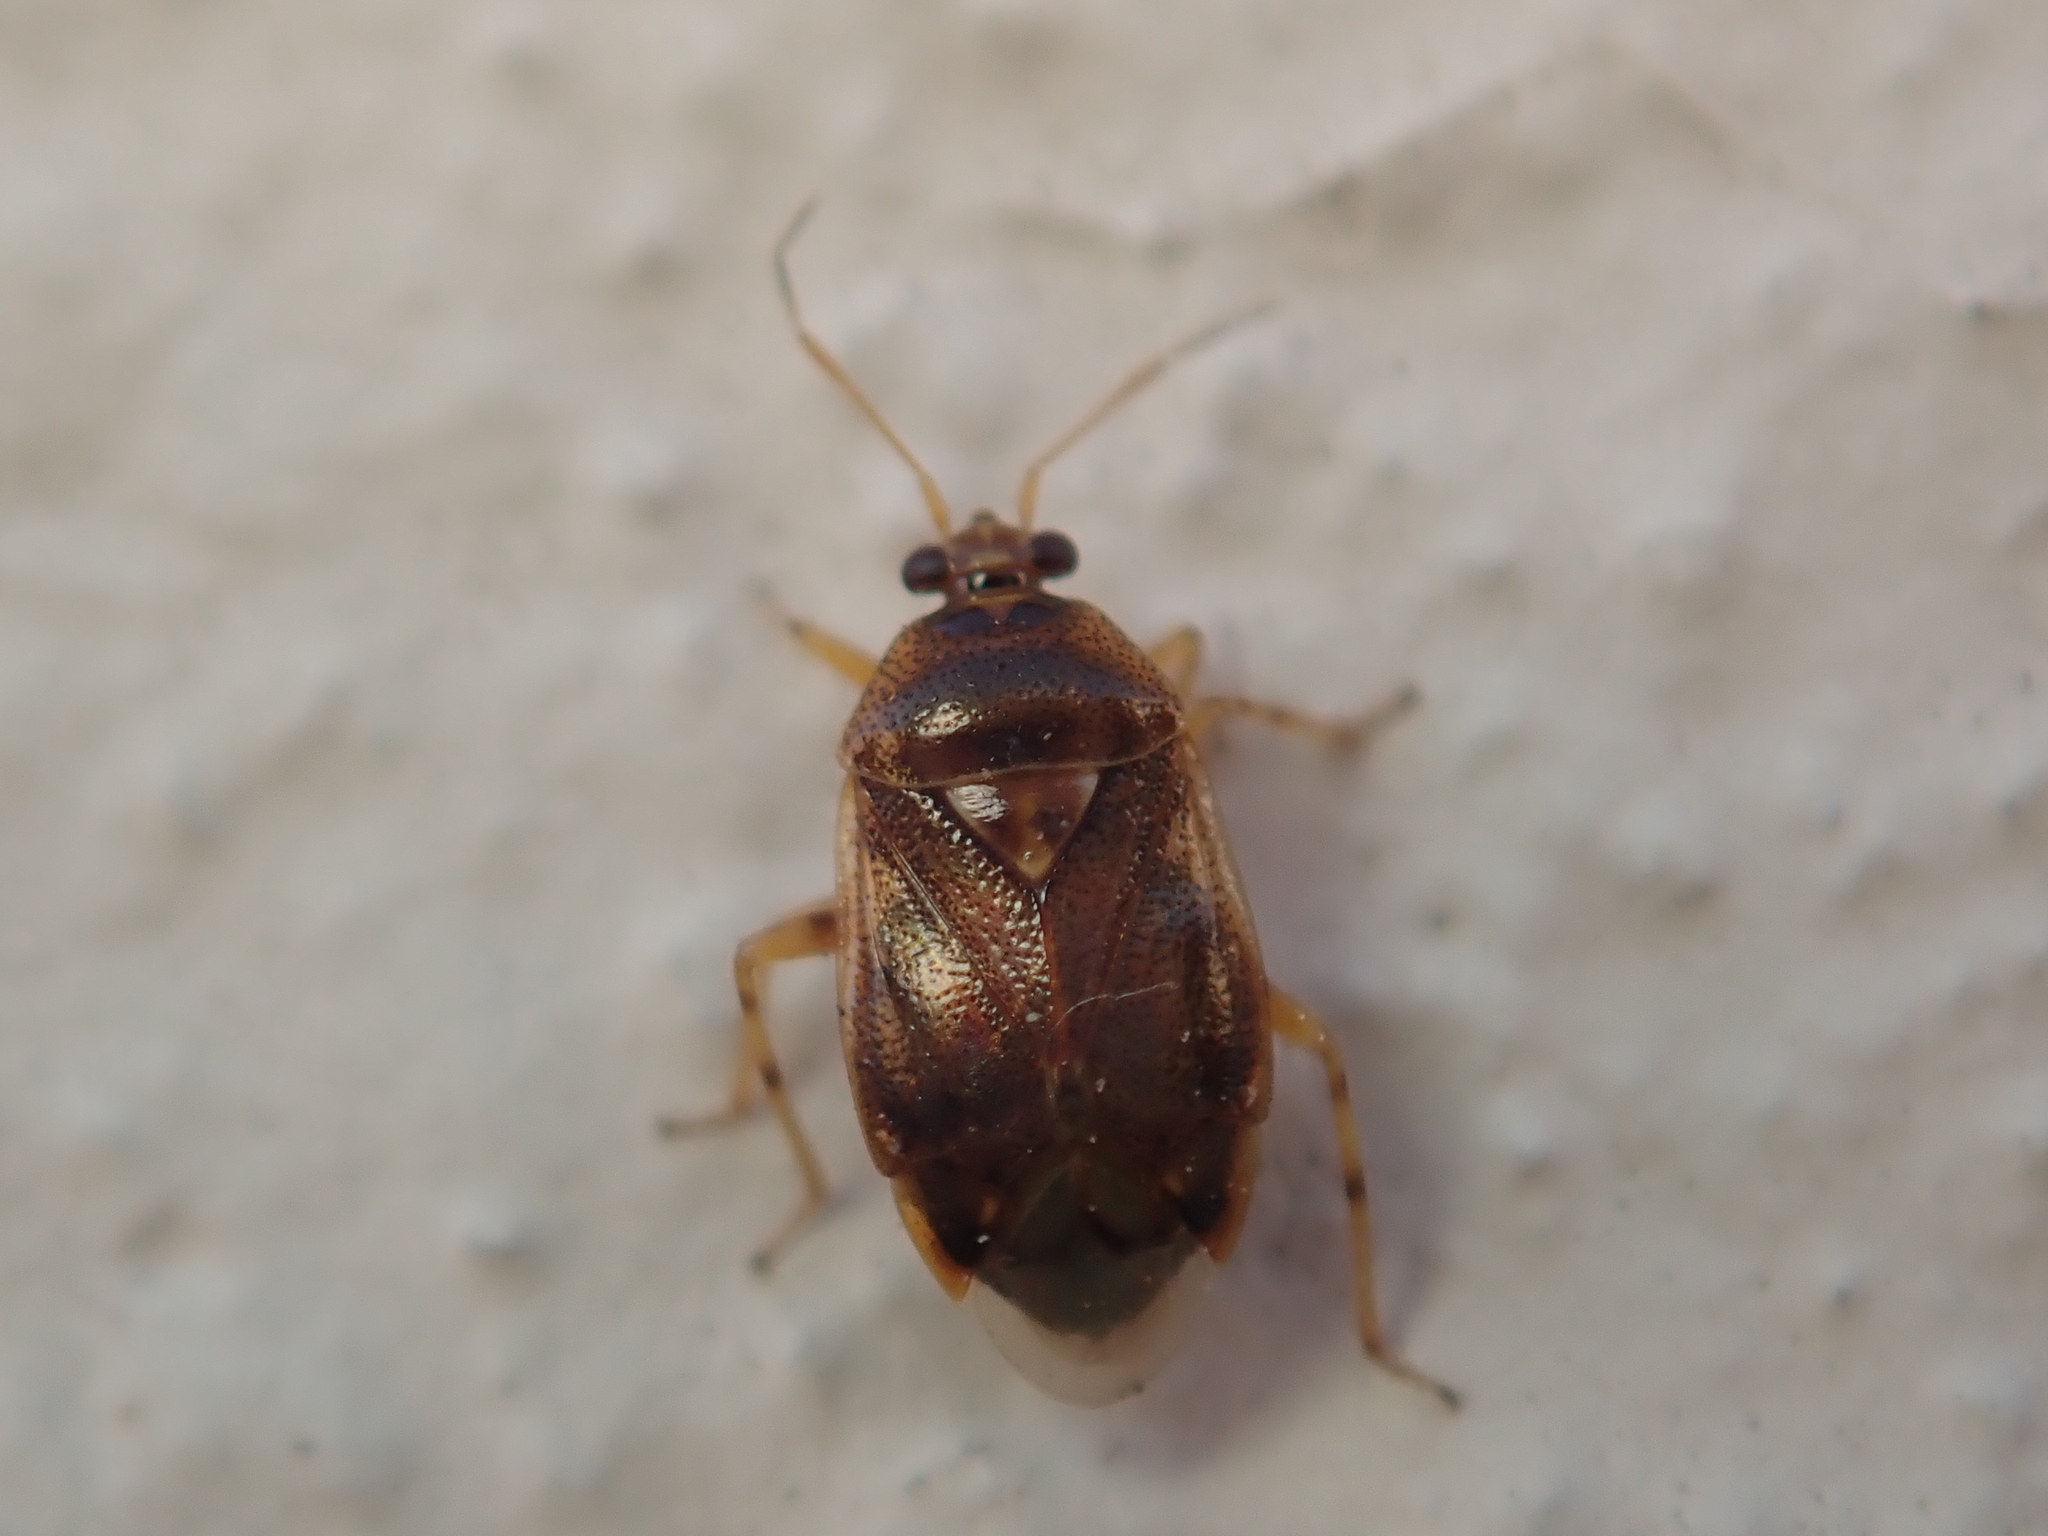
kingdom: Animalia
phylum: Arthropoda
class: Insecta
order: Hemiptera
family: Miridae
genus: Deraeocoris
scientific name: Deraeocoris lutescens
